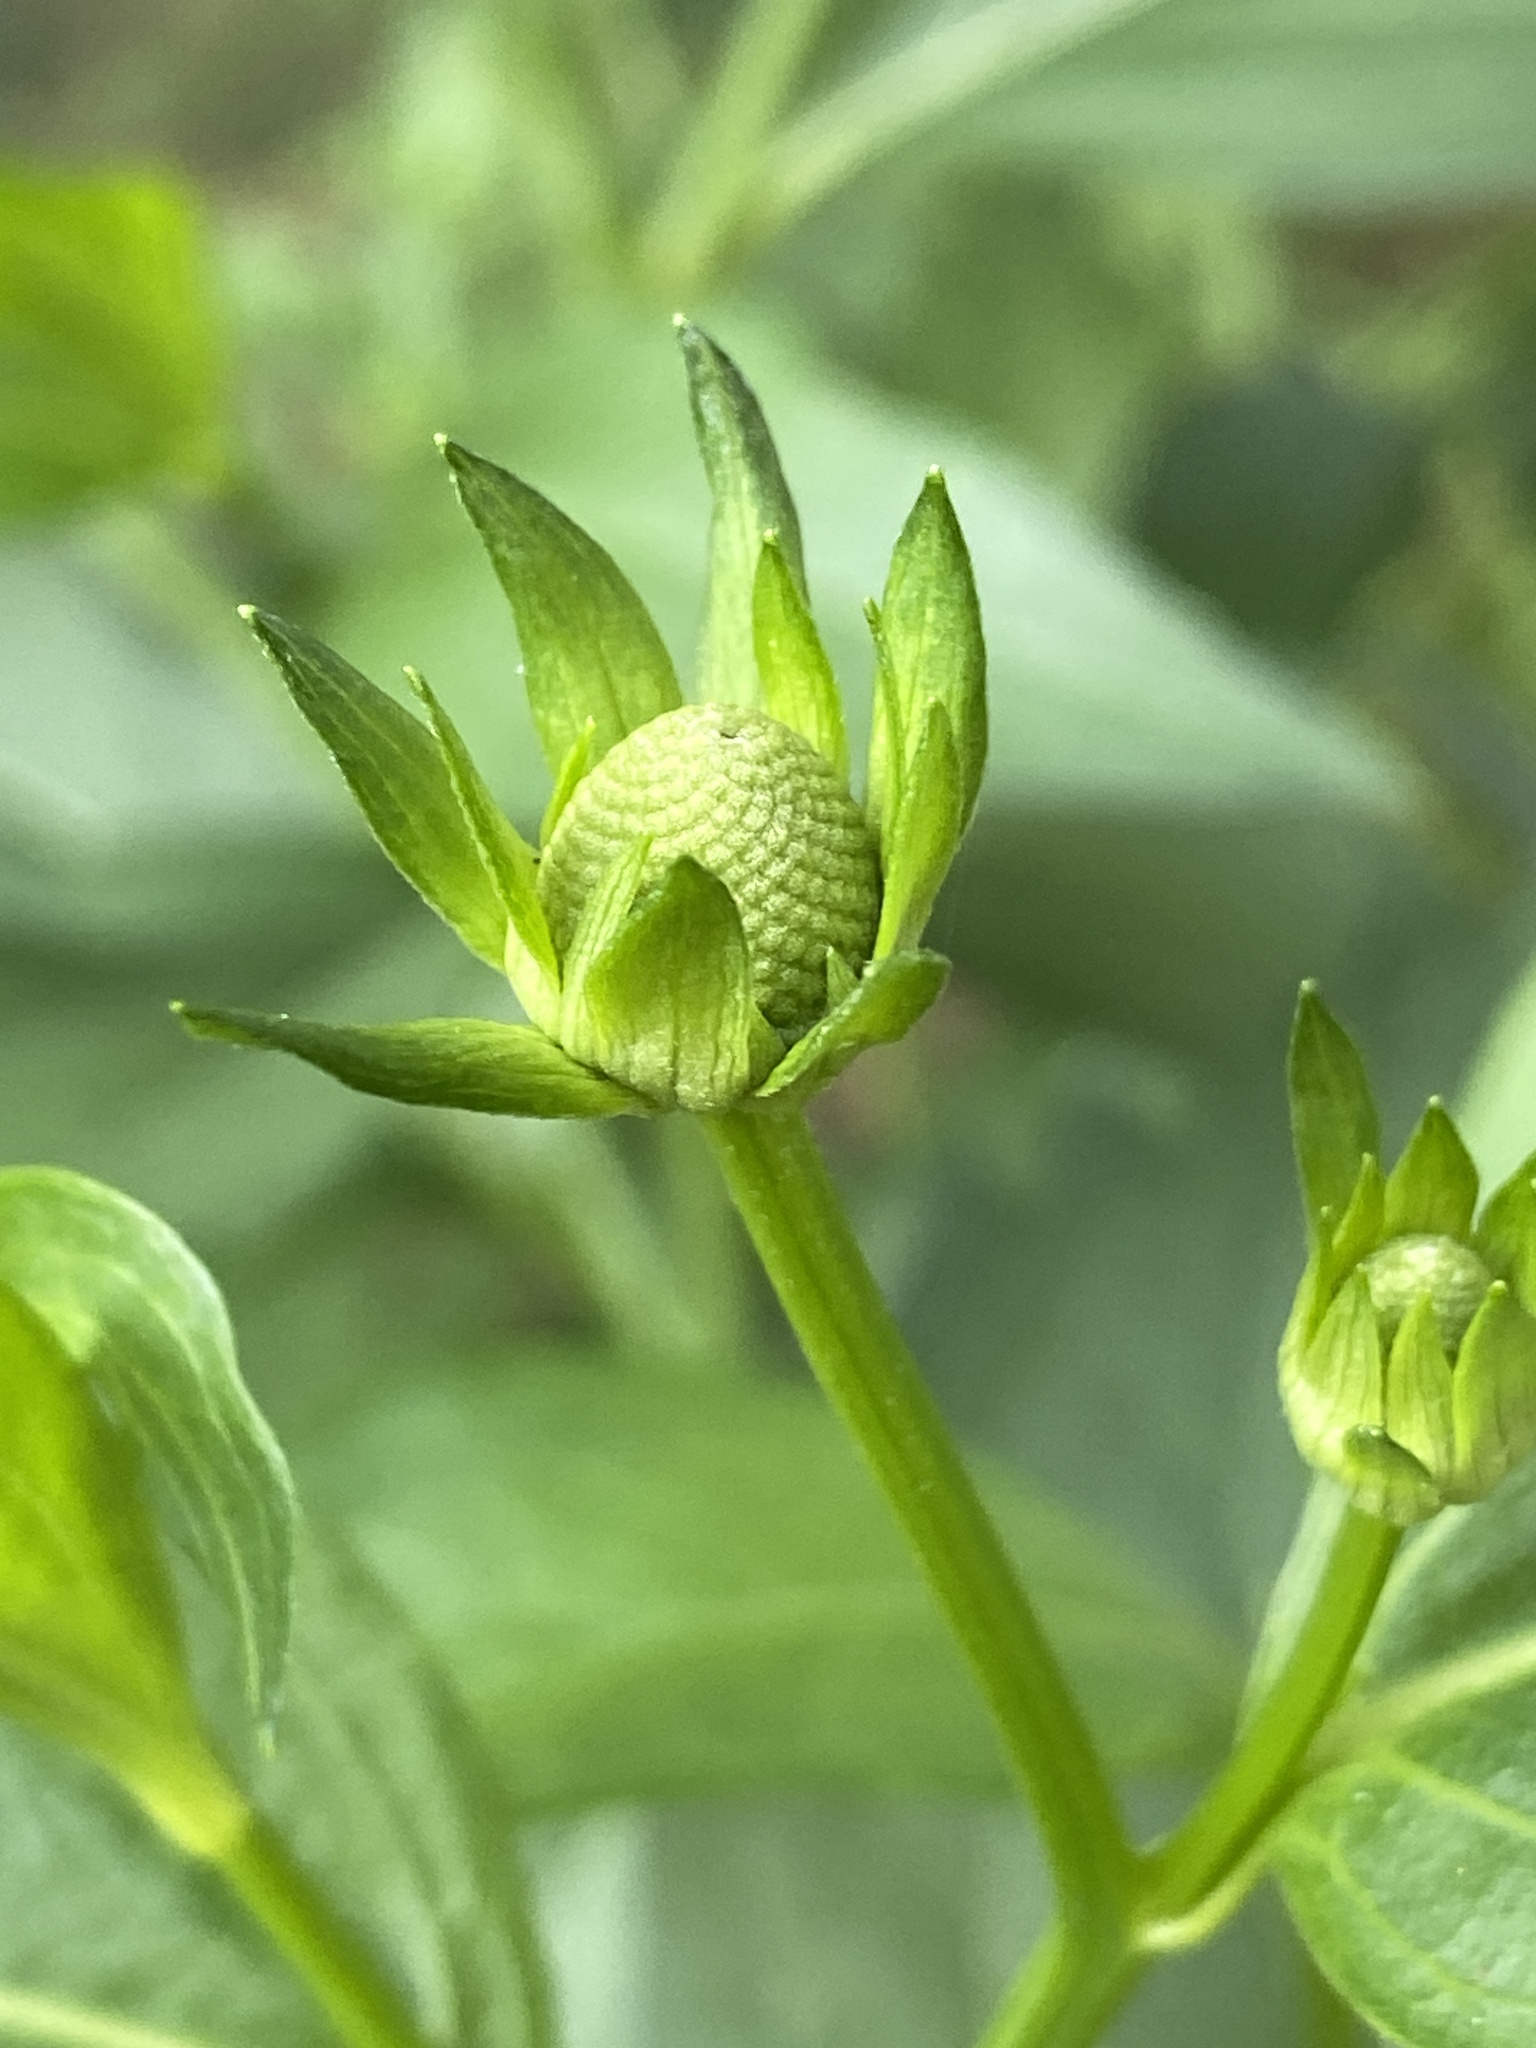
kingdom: Plantae
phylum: Tracheophyta
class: Magnoliopsida
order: Asterales
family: Asteraceae
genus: Rudbeckia
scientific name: Rudbeckia laciniata
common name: Coneflower
